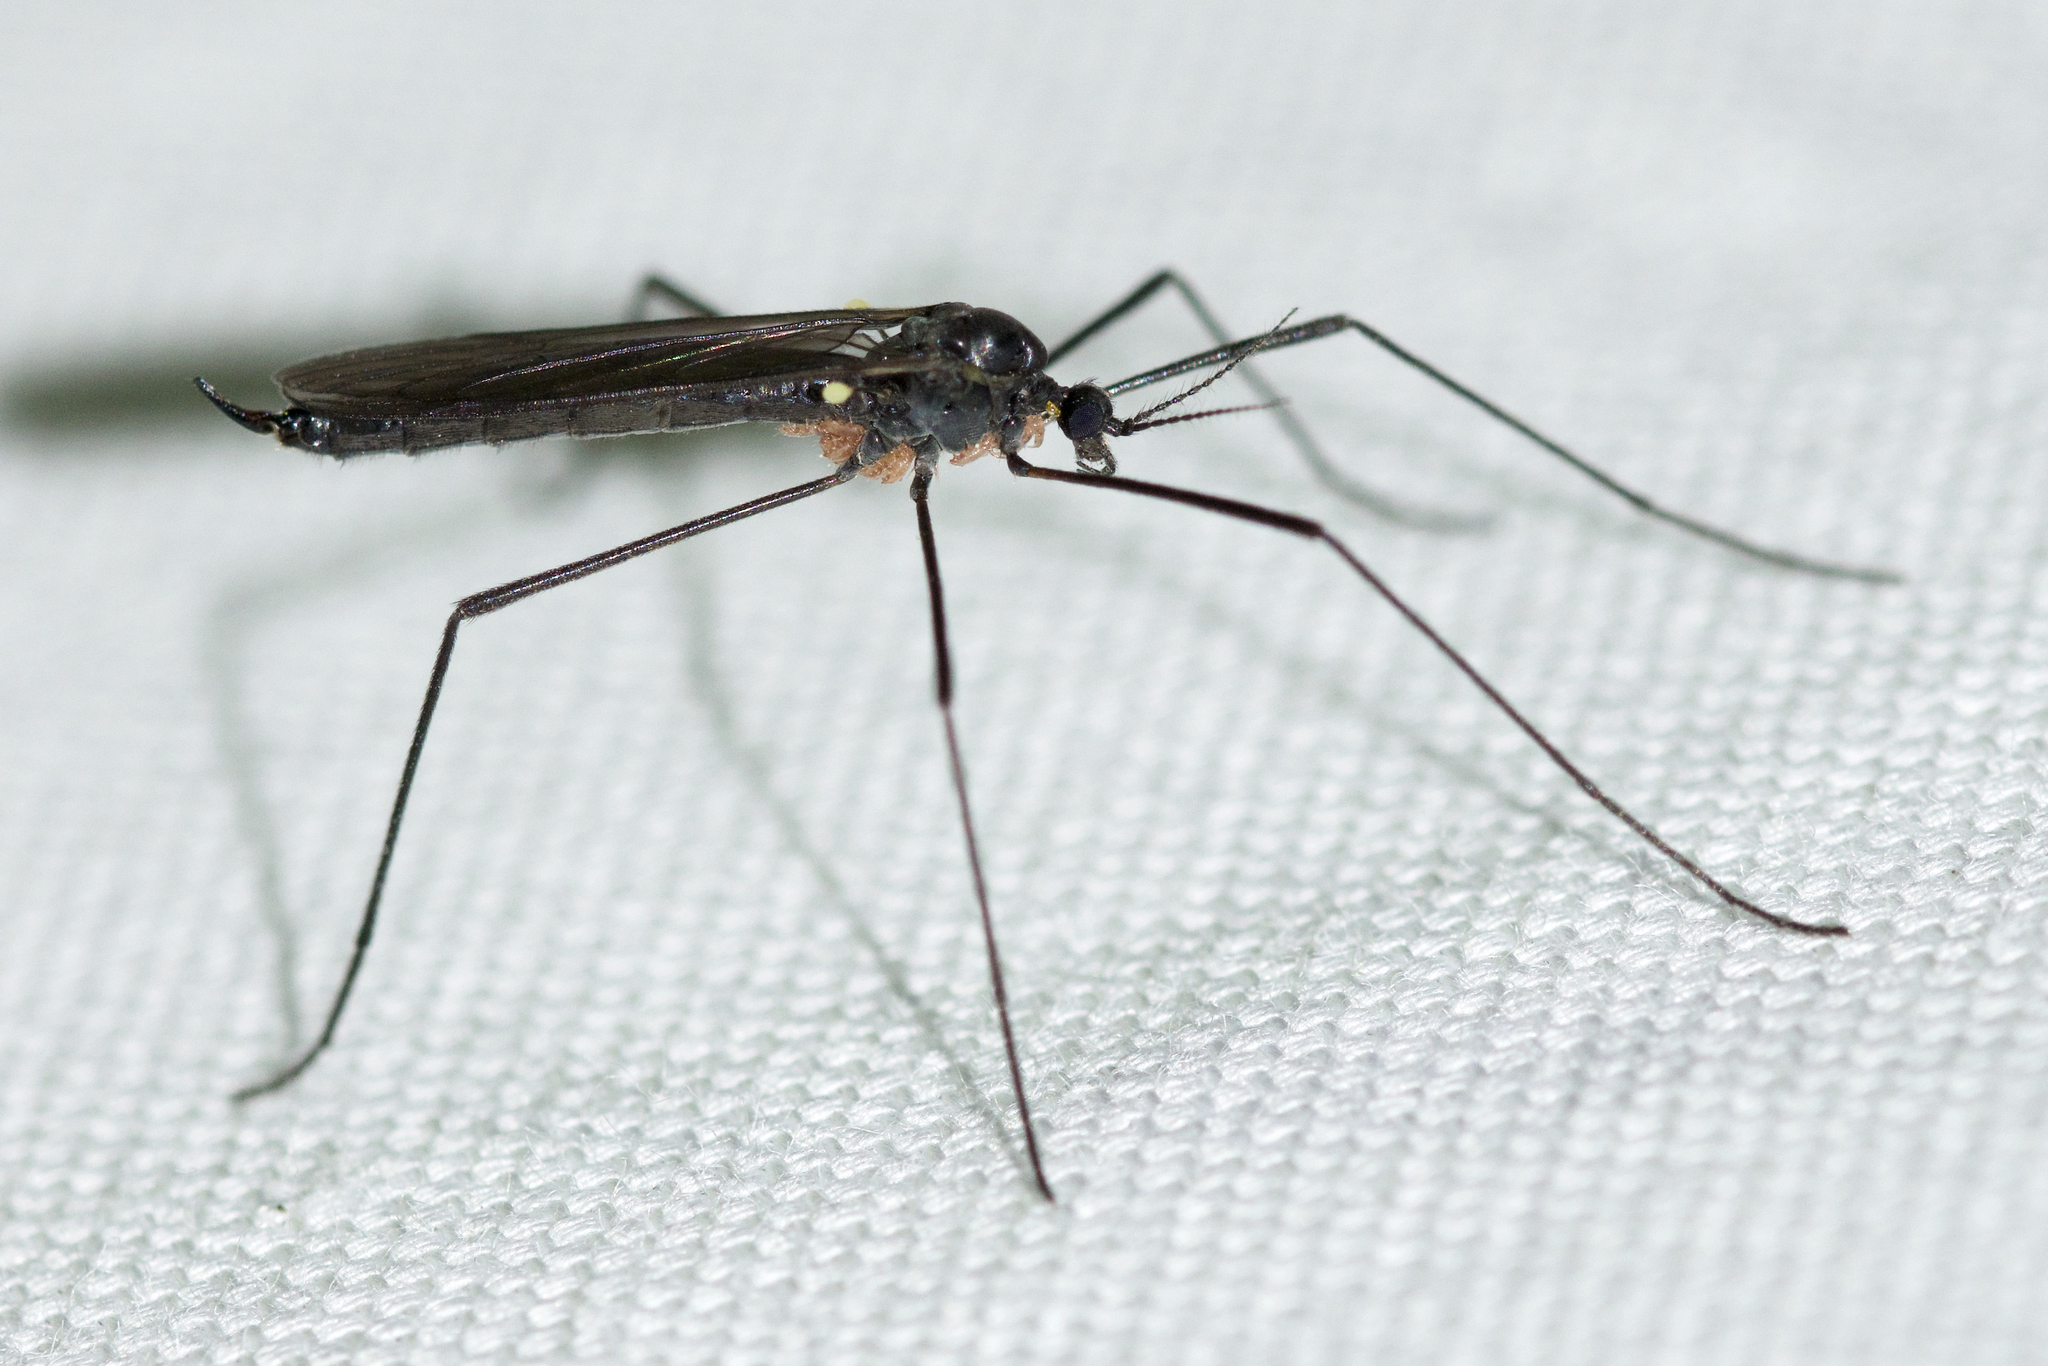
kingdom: Animalia
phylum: Arthropoda
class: Insecta
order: Diptera
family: Limoniidae
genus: Gnophomyia
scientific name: Gnophomyia tristissima
